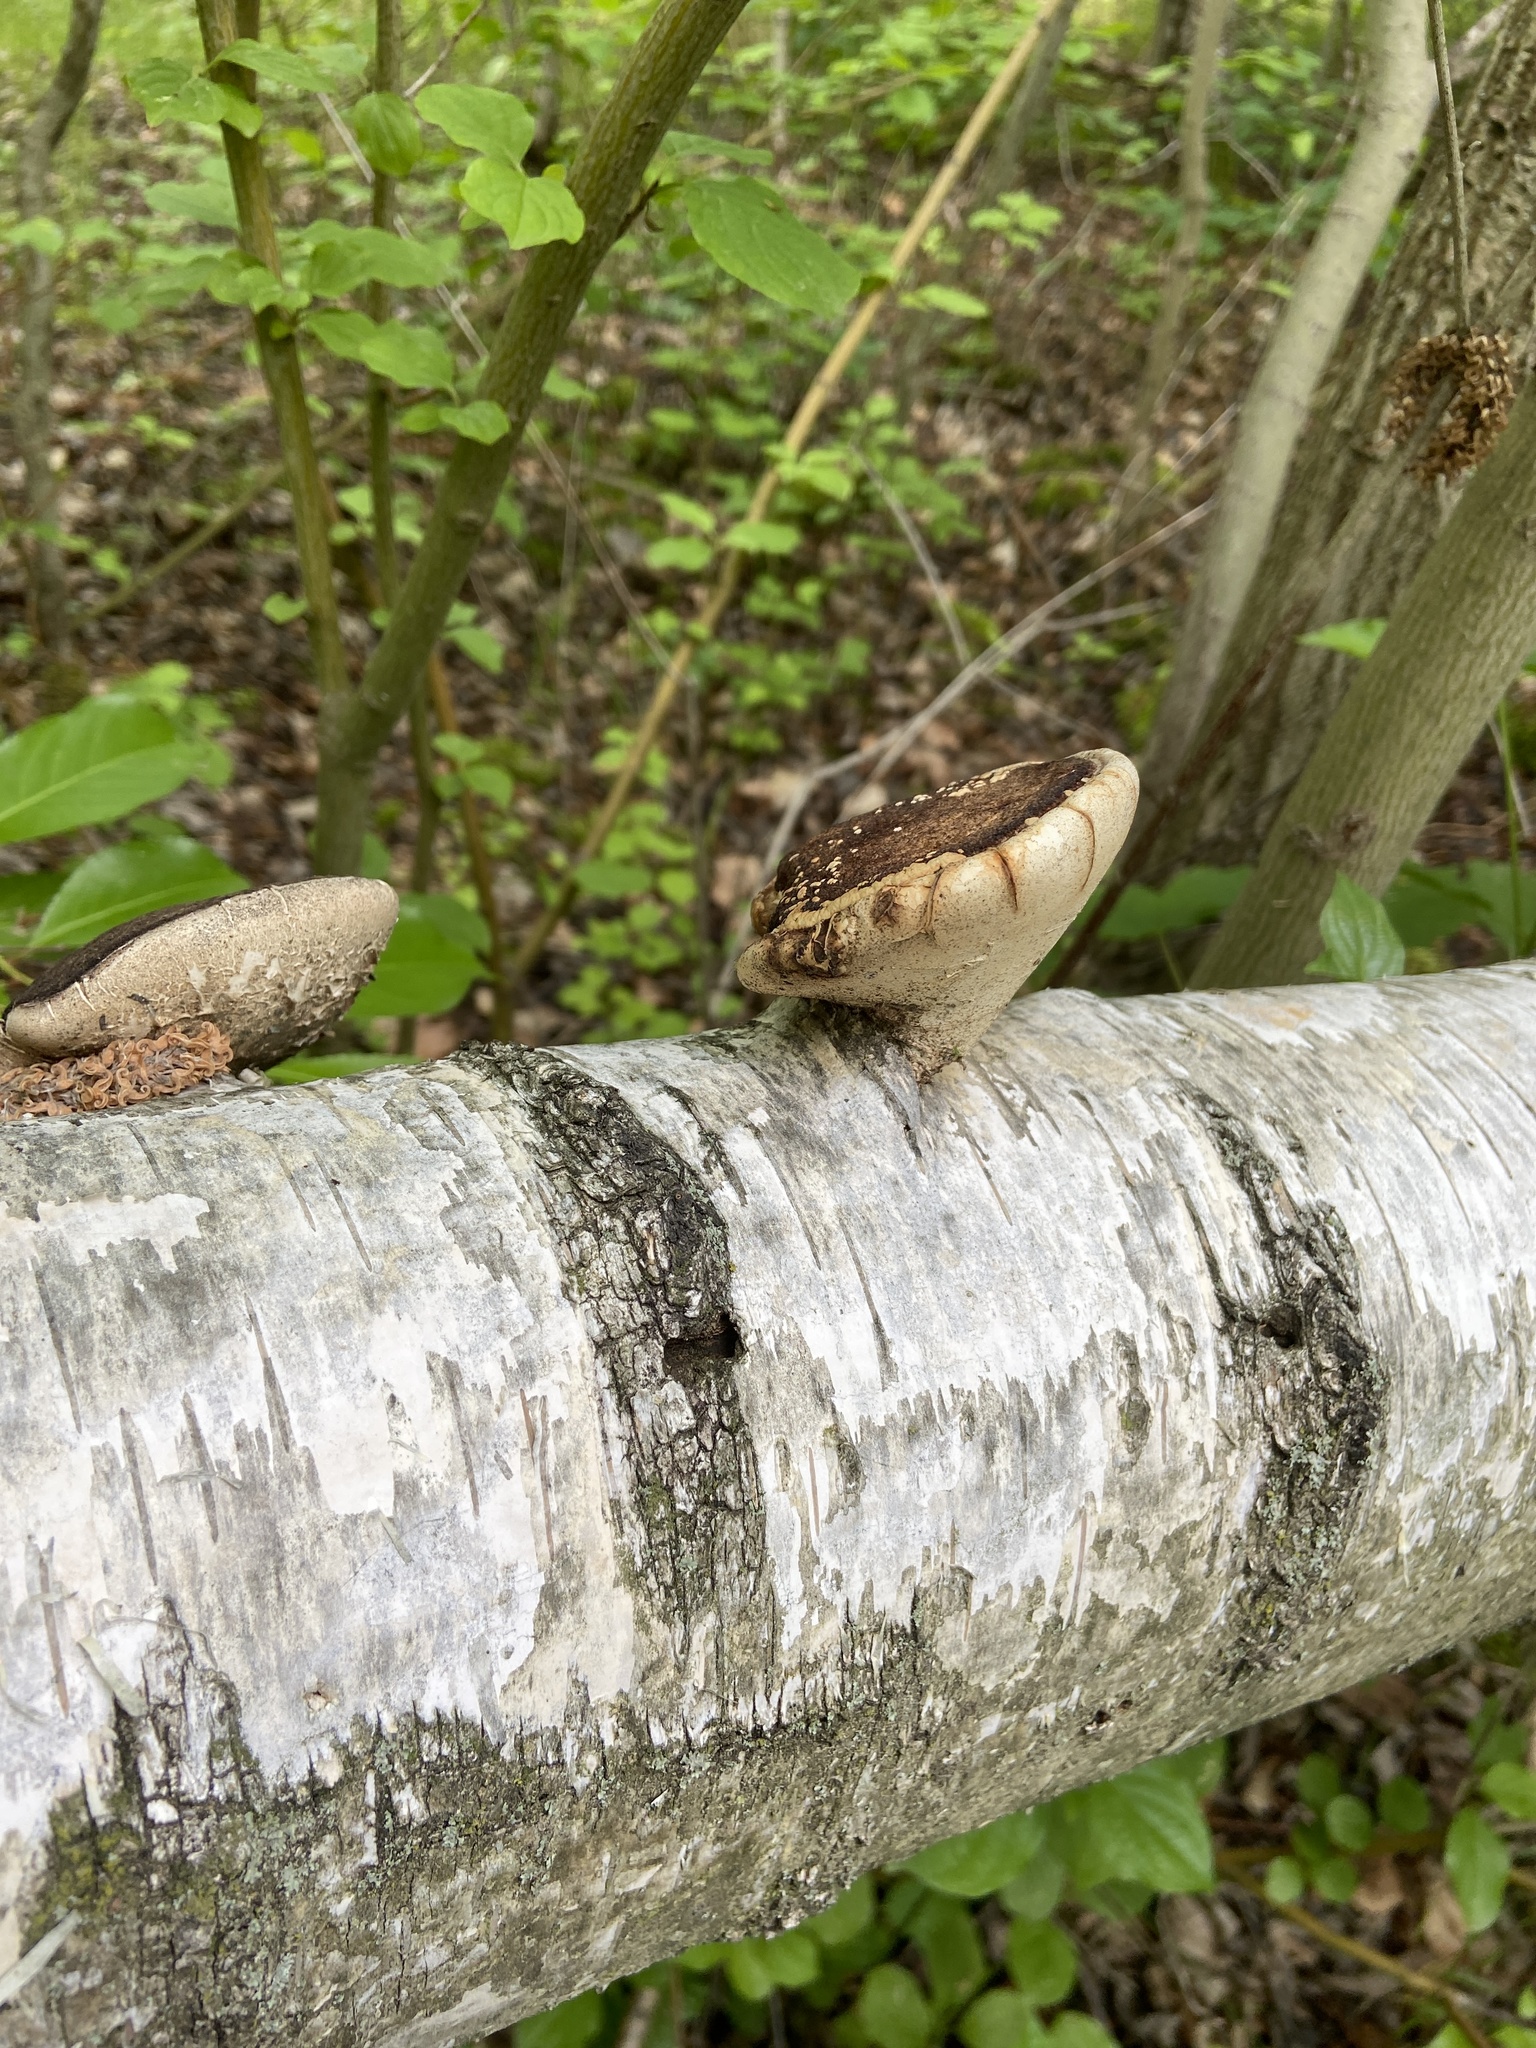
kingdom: Fungi
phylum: Basidiomycota
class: Agaricomycetes
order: Polyporales
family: Fomitopsidaceae
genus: Fomitopsis
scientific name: Fomitopsis betulina
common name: Birch polypore
